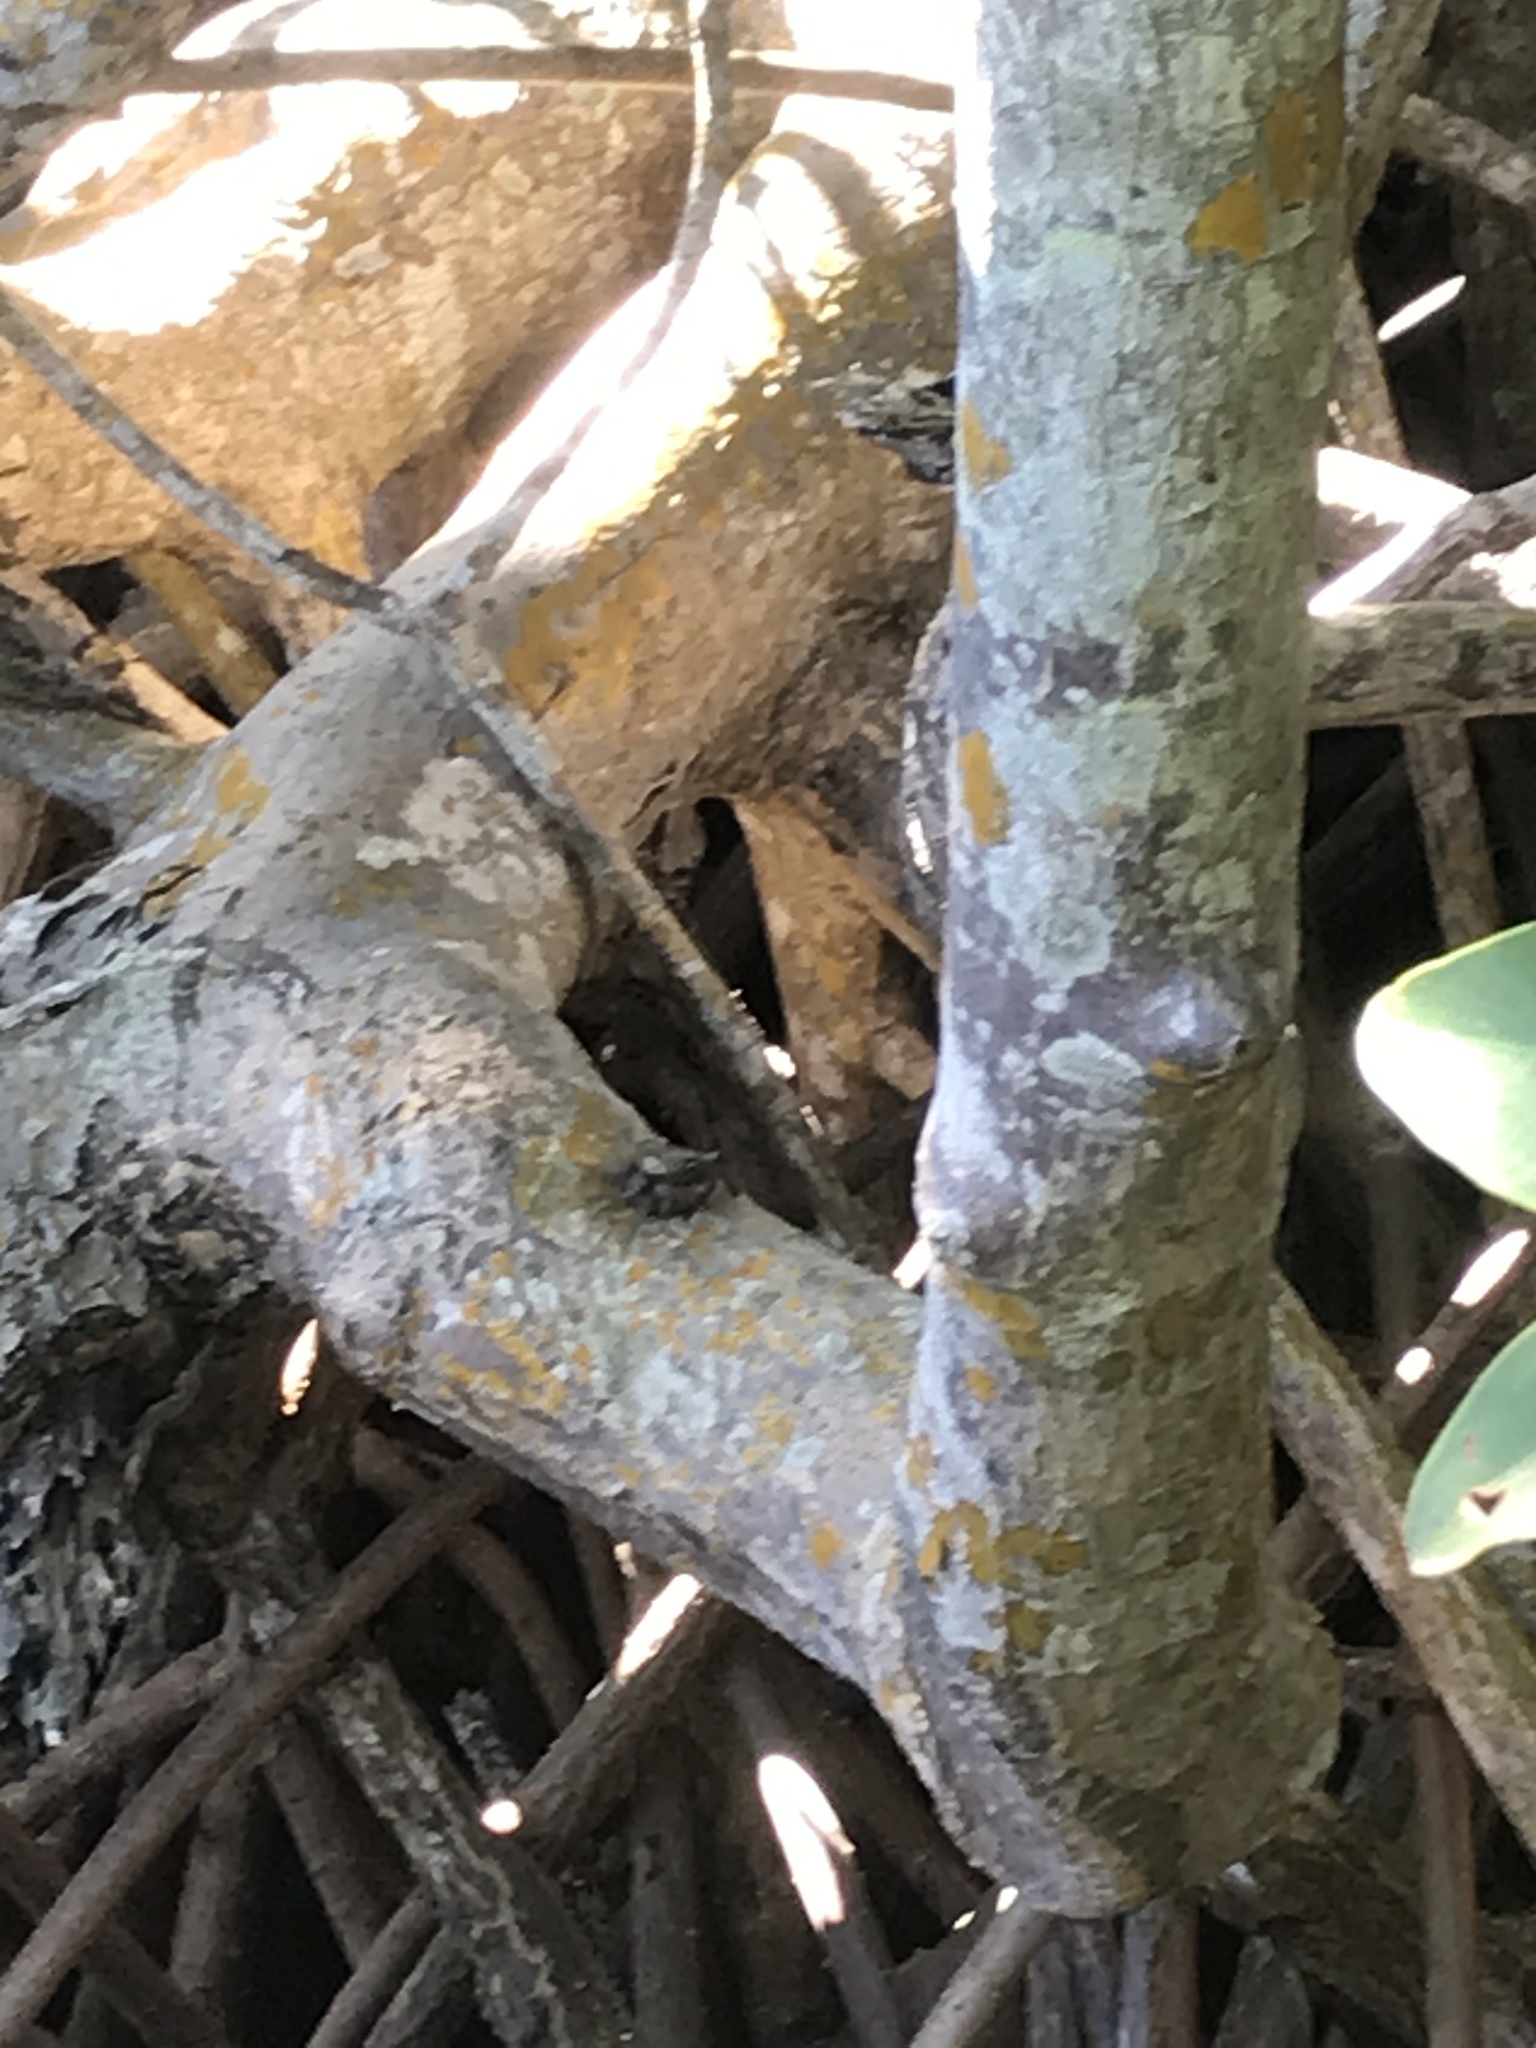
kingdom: Animalia
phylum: Arthropoda
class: Malacostraca
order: Decapoda
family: Sesarmidae
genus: Aratus
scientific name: Aratus pisonii
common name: Mangrove crab
